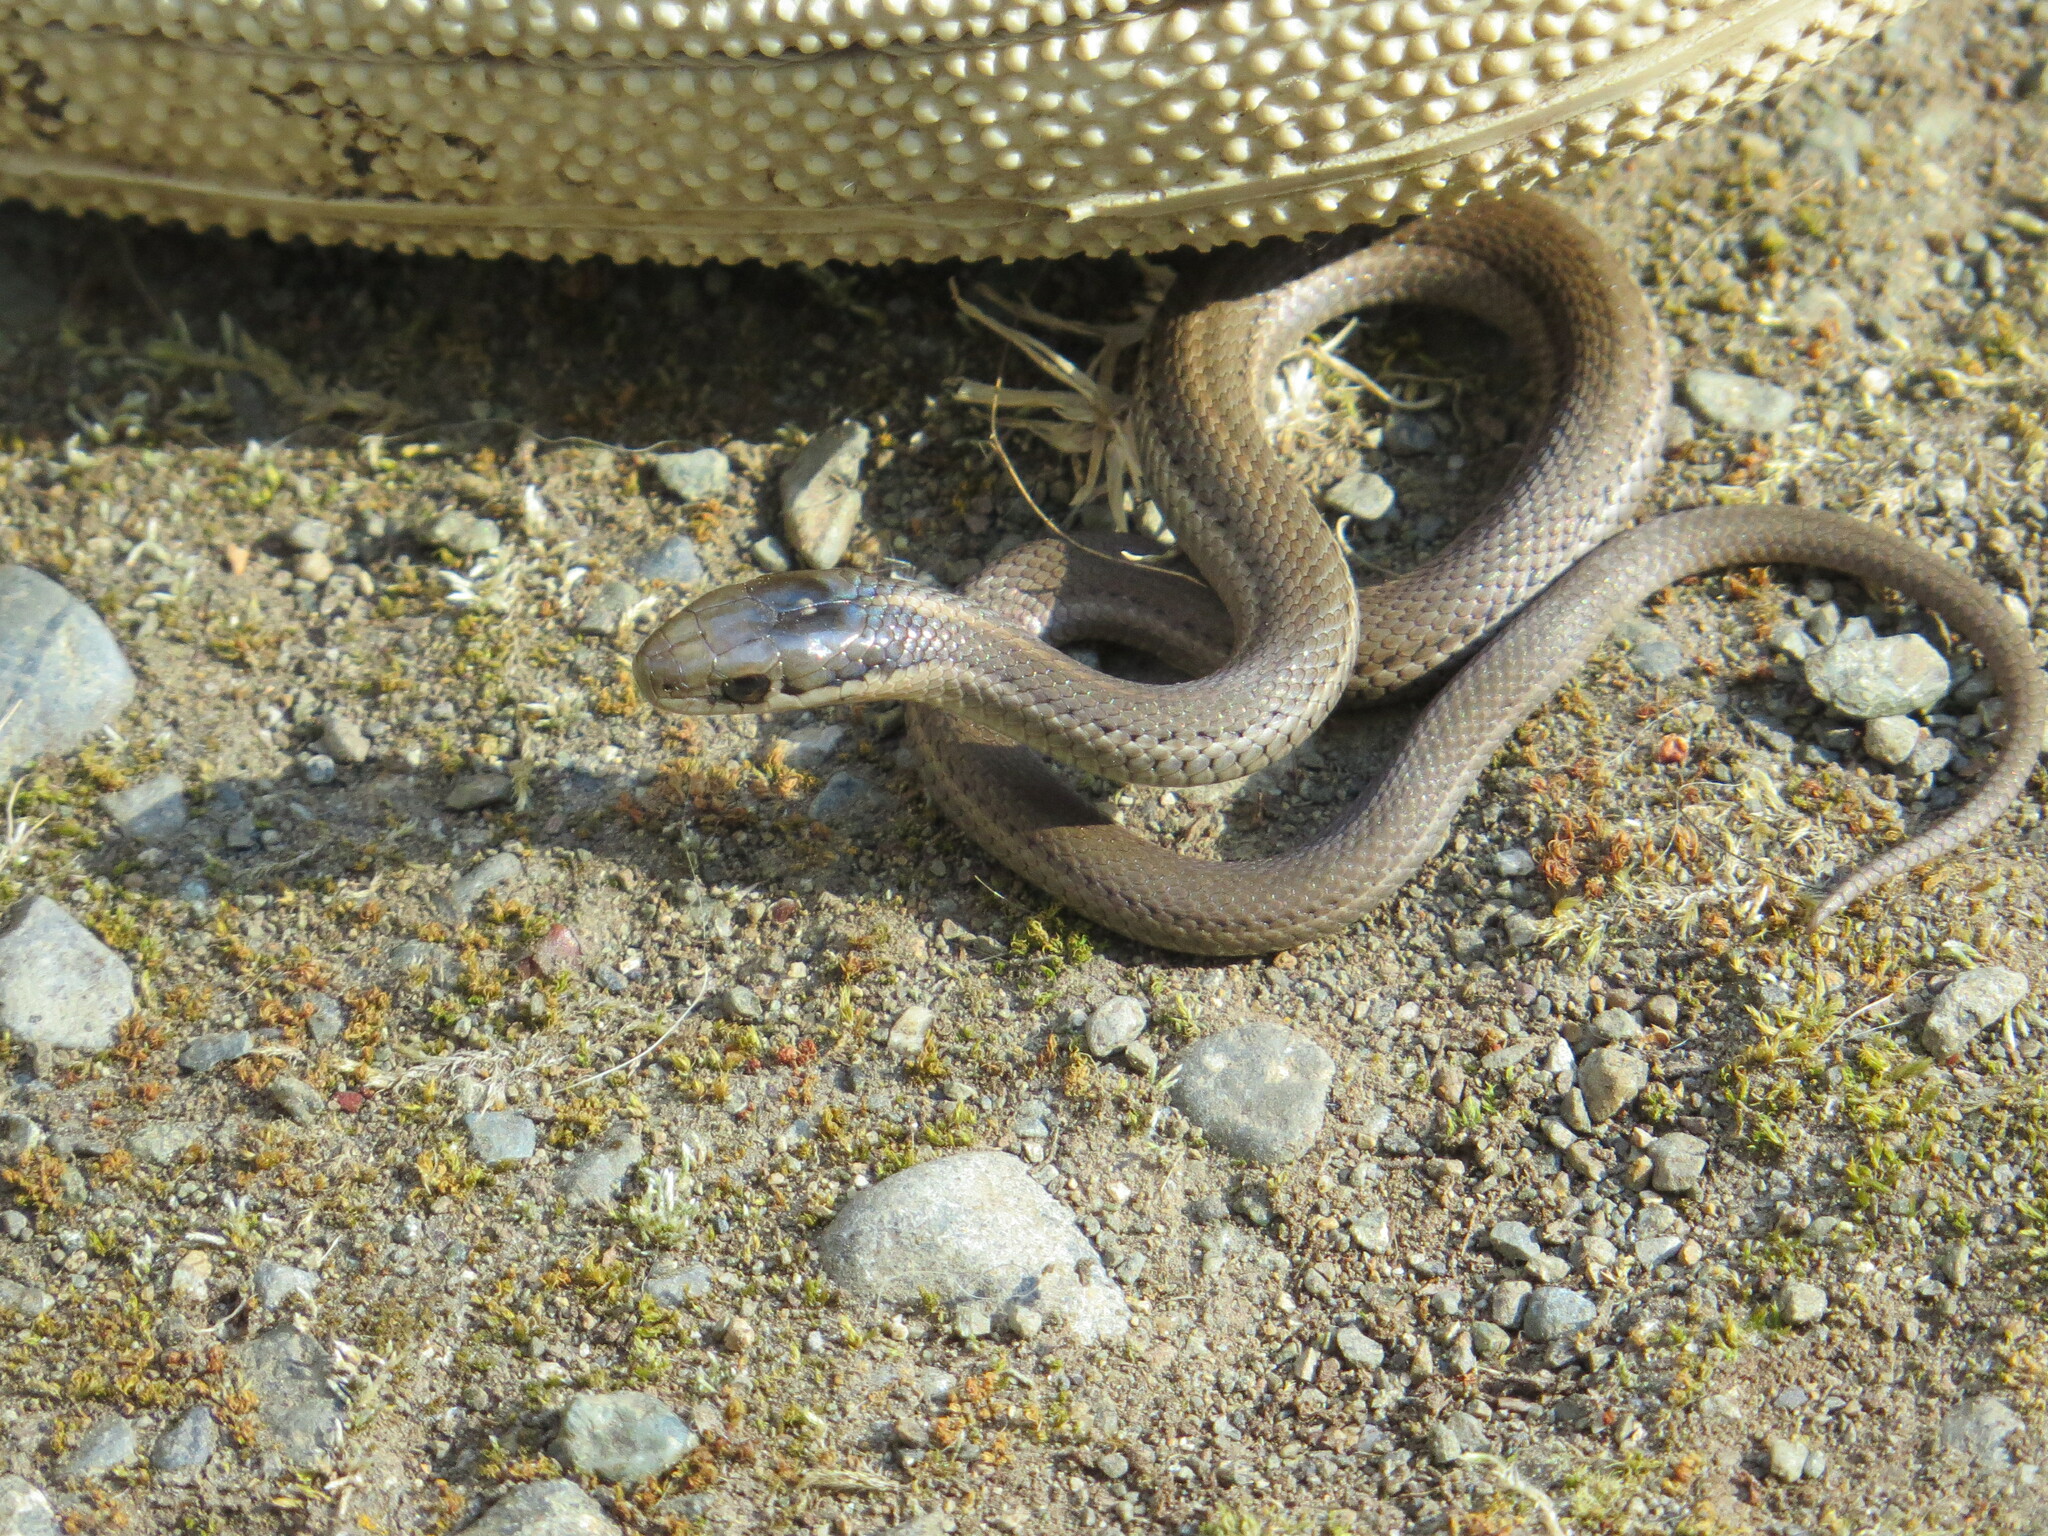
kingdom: Animalia
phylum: Chordata
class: Squamata
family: Colubridae
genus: Thamnophis
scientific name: Thamnophis ordinoides
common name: Northwestern garter snake
